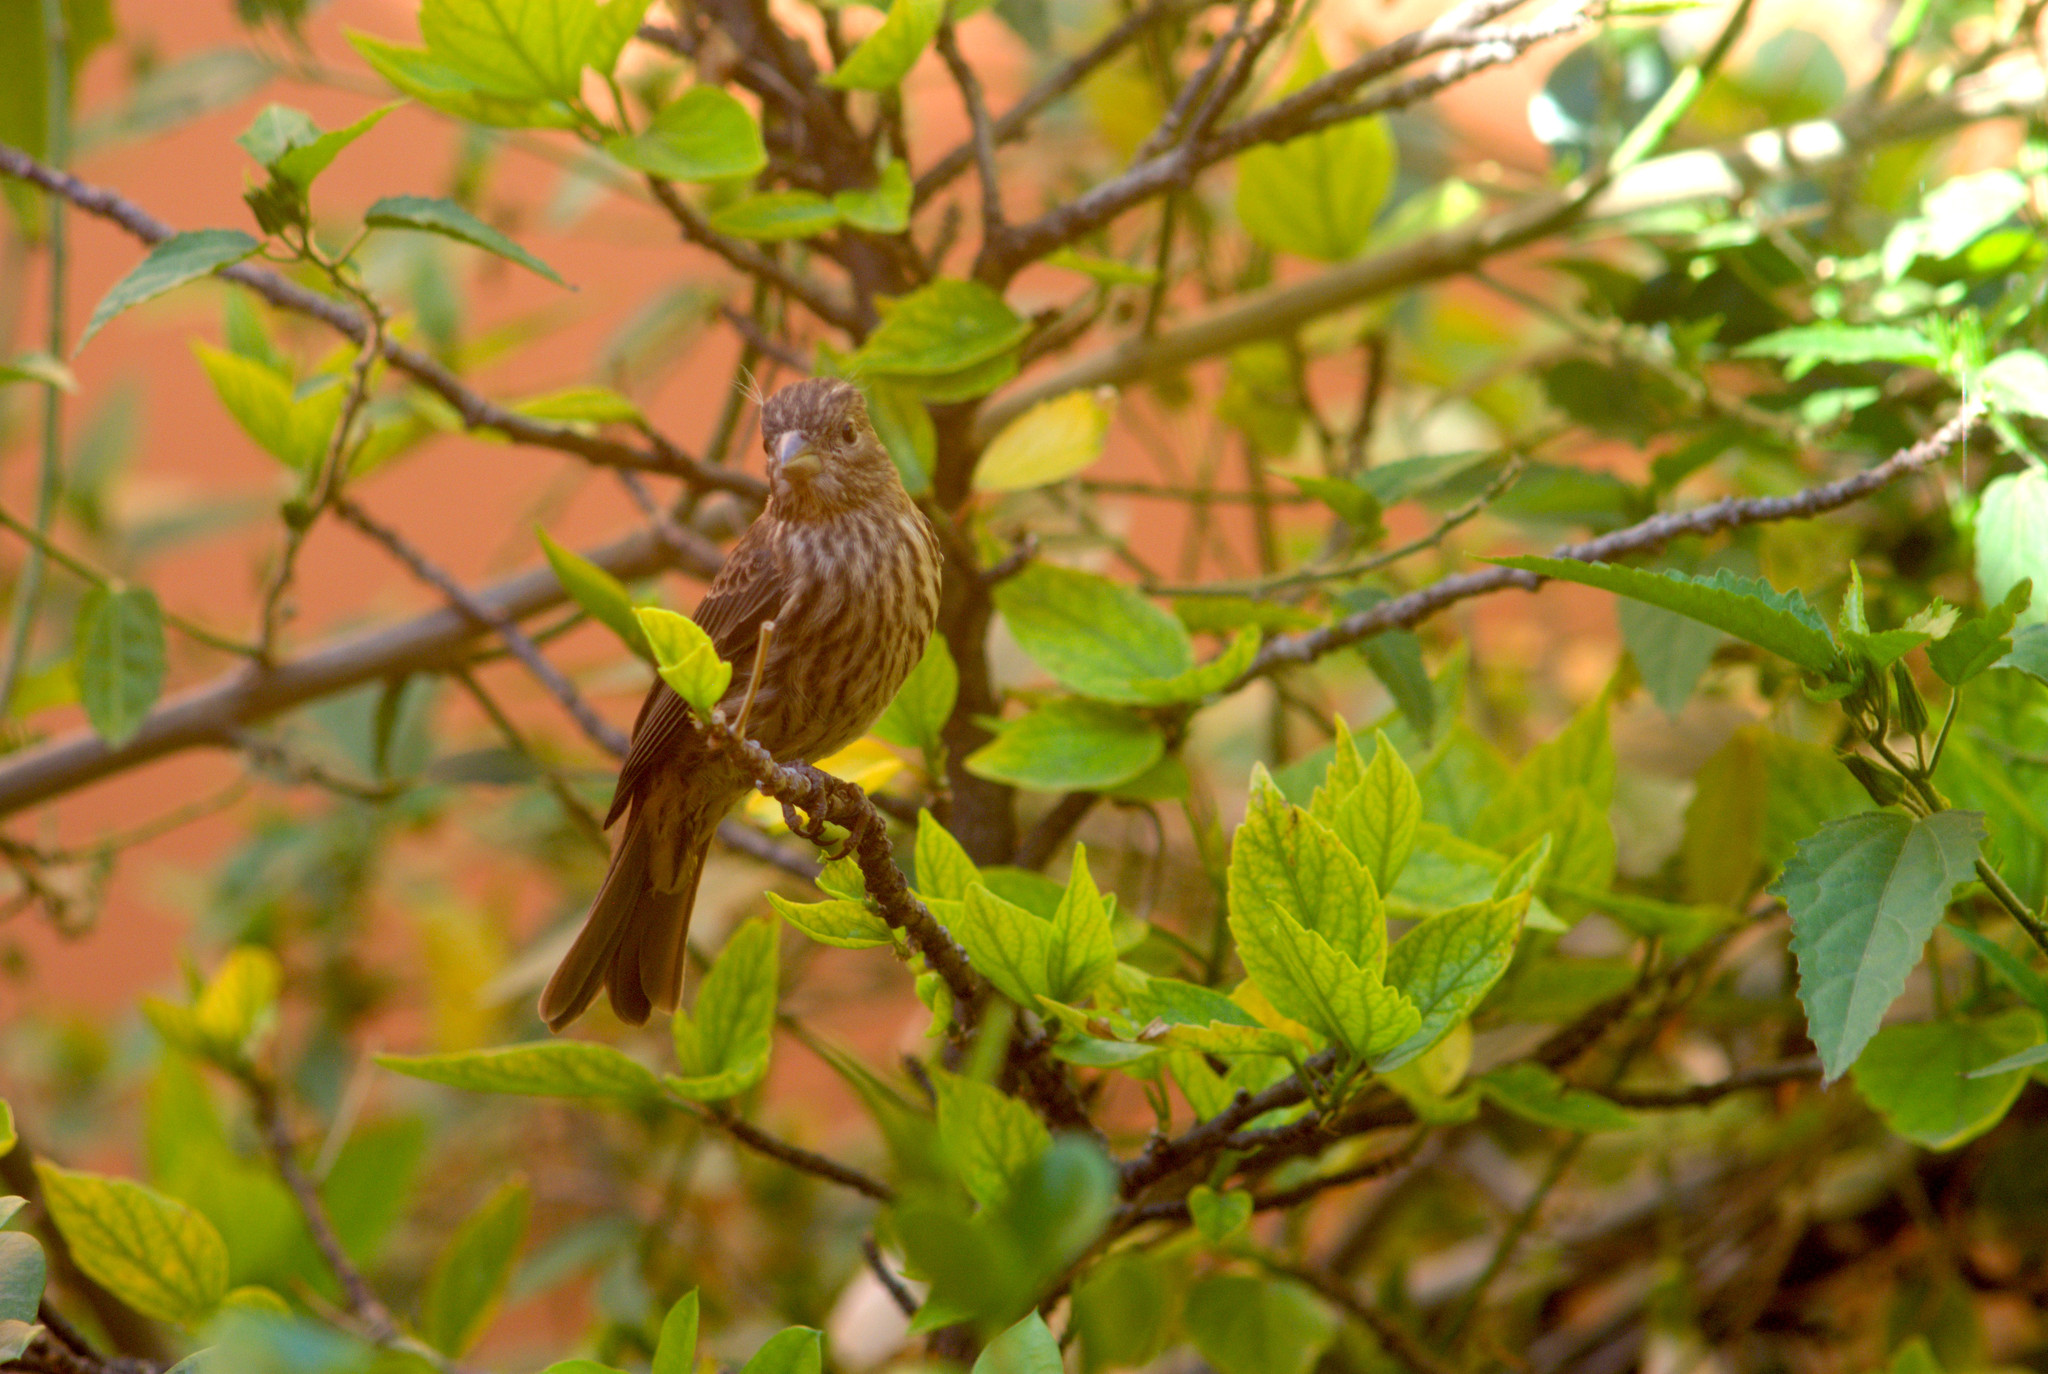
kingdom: Animalia
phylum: Chordata
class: Aves
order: Passeriformes
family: Fringillidae
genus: Haemorhous
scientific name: Haemorhous mexicanus
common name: House finch
